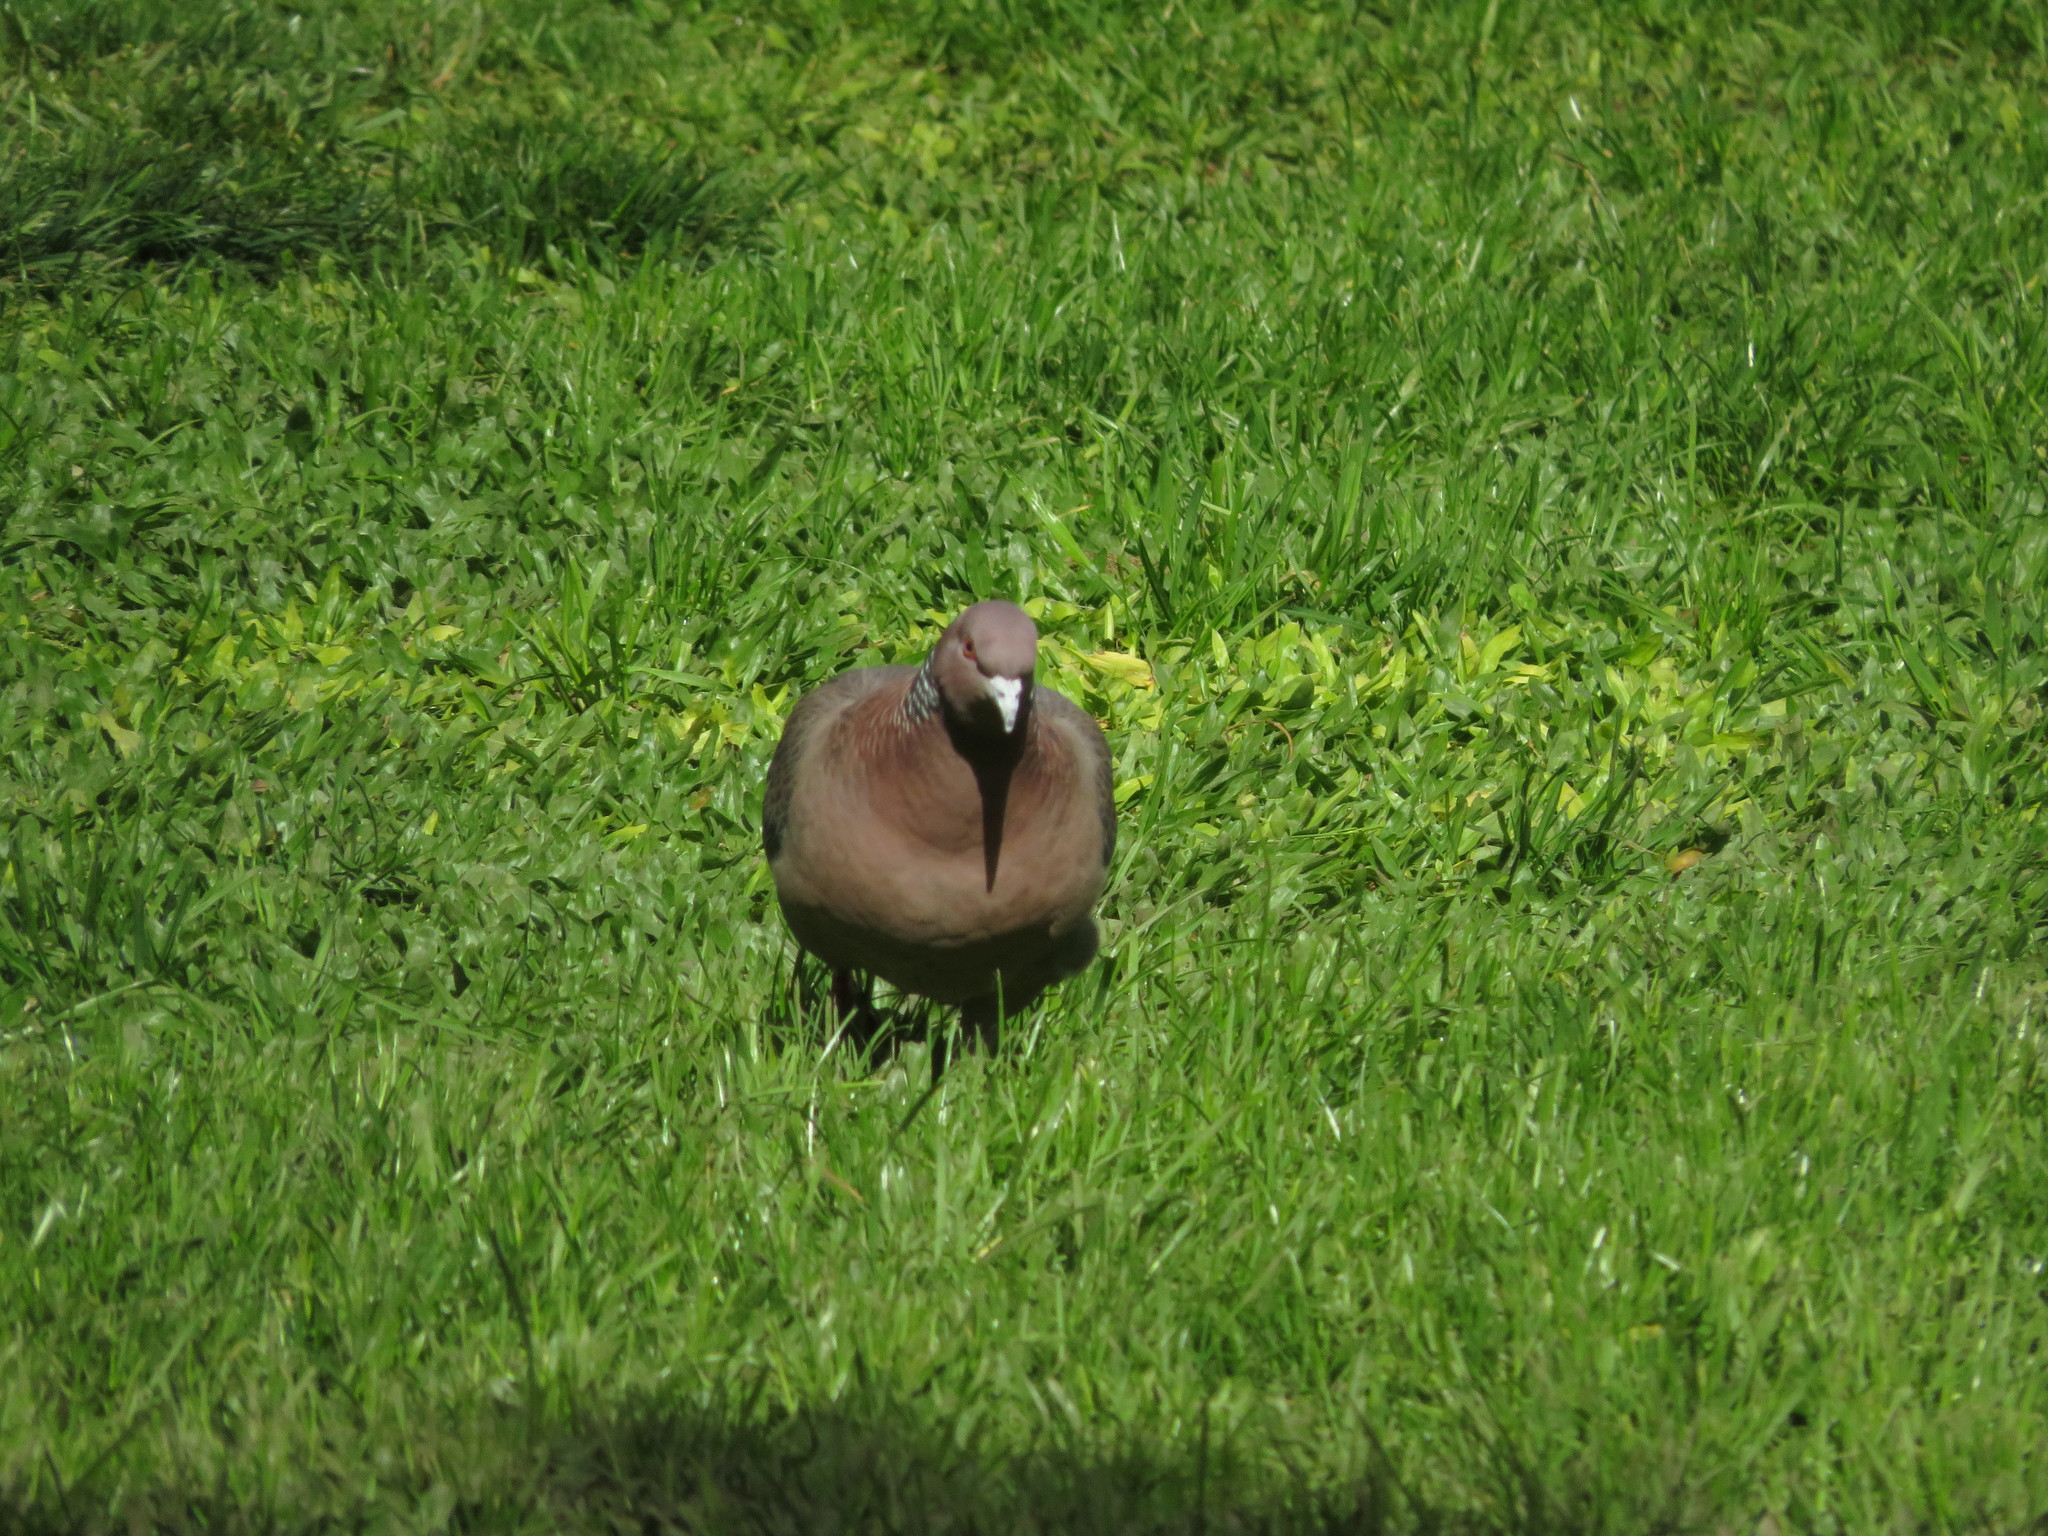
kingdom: Animalia
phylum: Chordata
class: Aves
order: Columbiformes
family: Columbidae
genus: Patagioenas
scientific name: Patagioenas picazuro
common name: Picazuro pigeon
